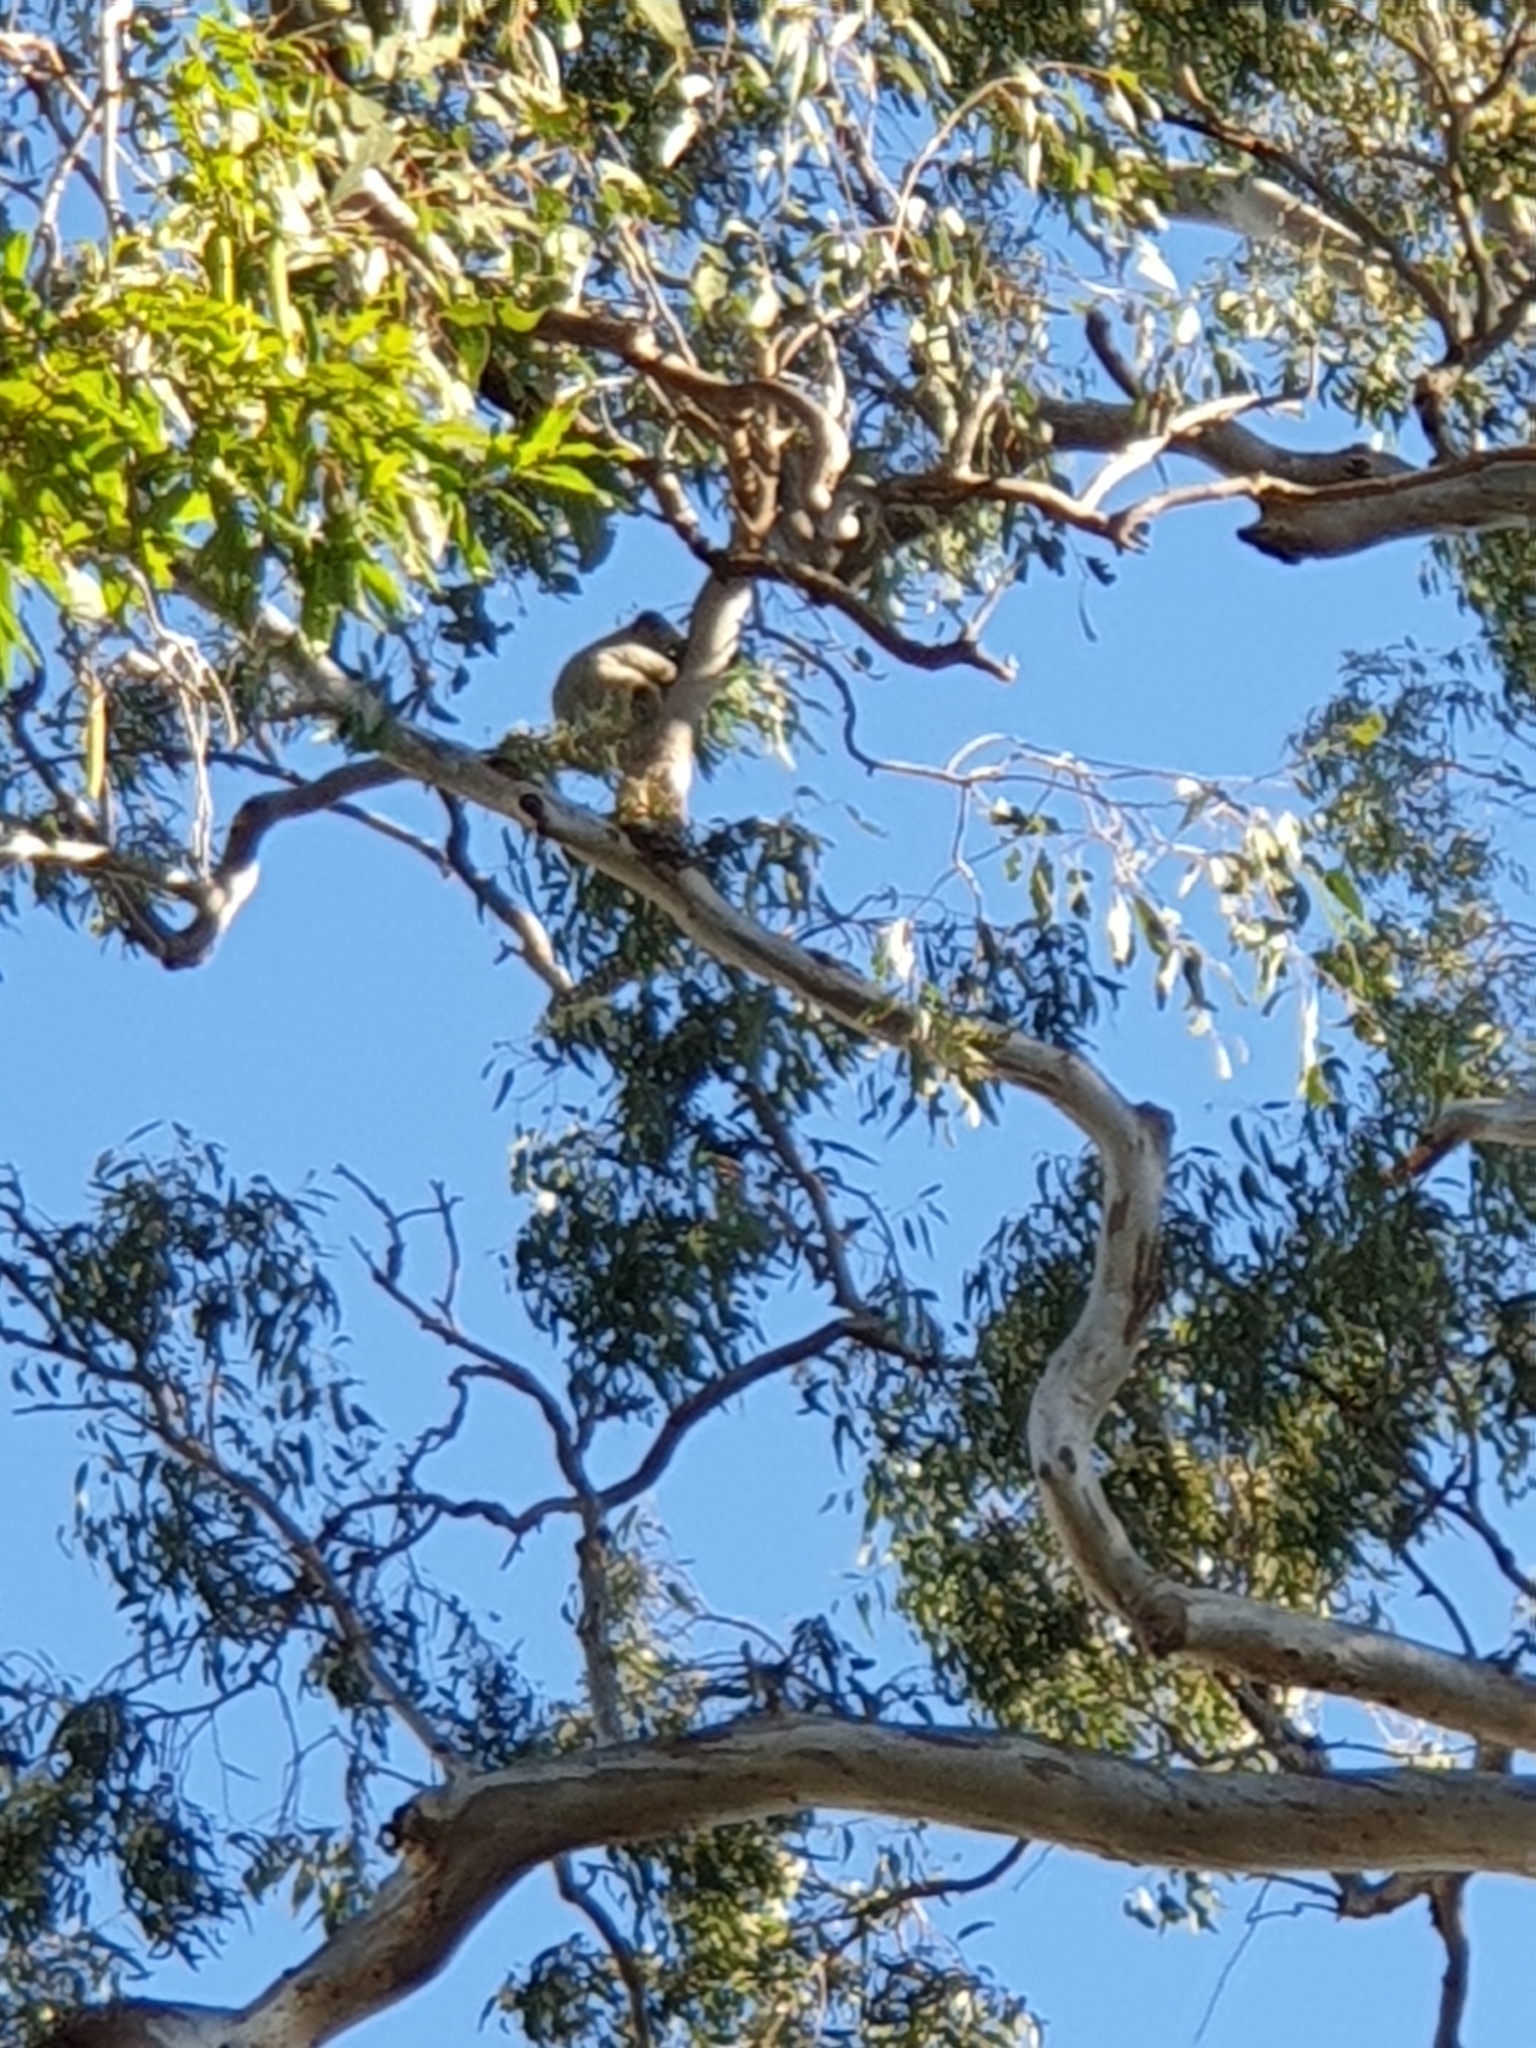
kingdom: Animalia
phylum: Chordata
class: Mammalia
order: Diprotodontia
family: Phascolarctidae
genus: Phascolarctos
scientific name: Phascolarctos cinereus
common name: Koala
